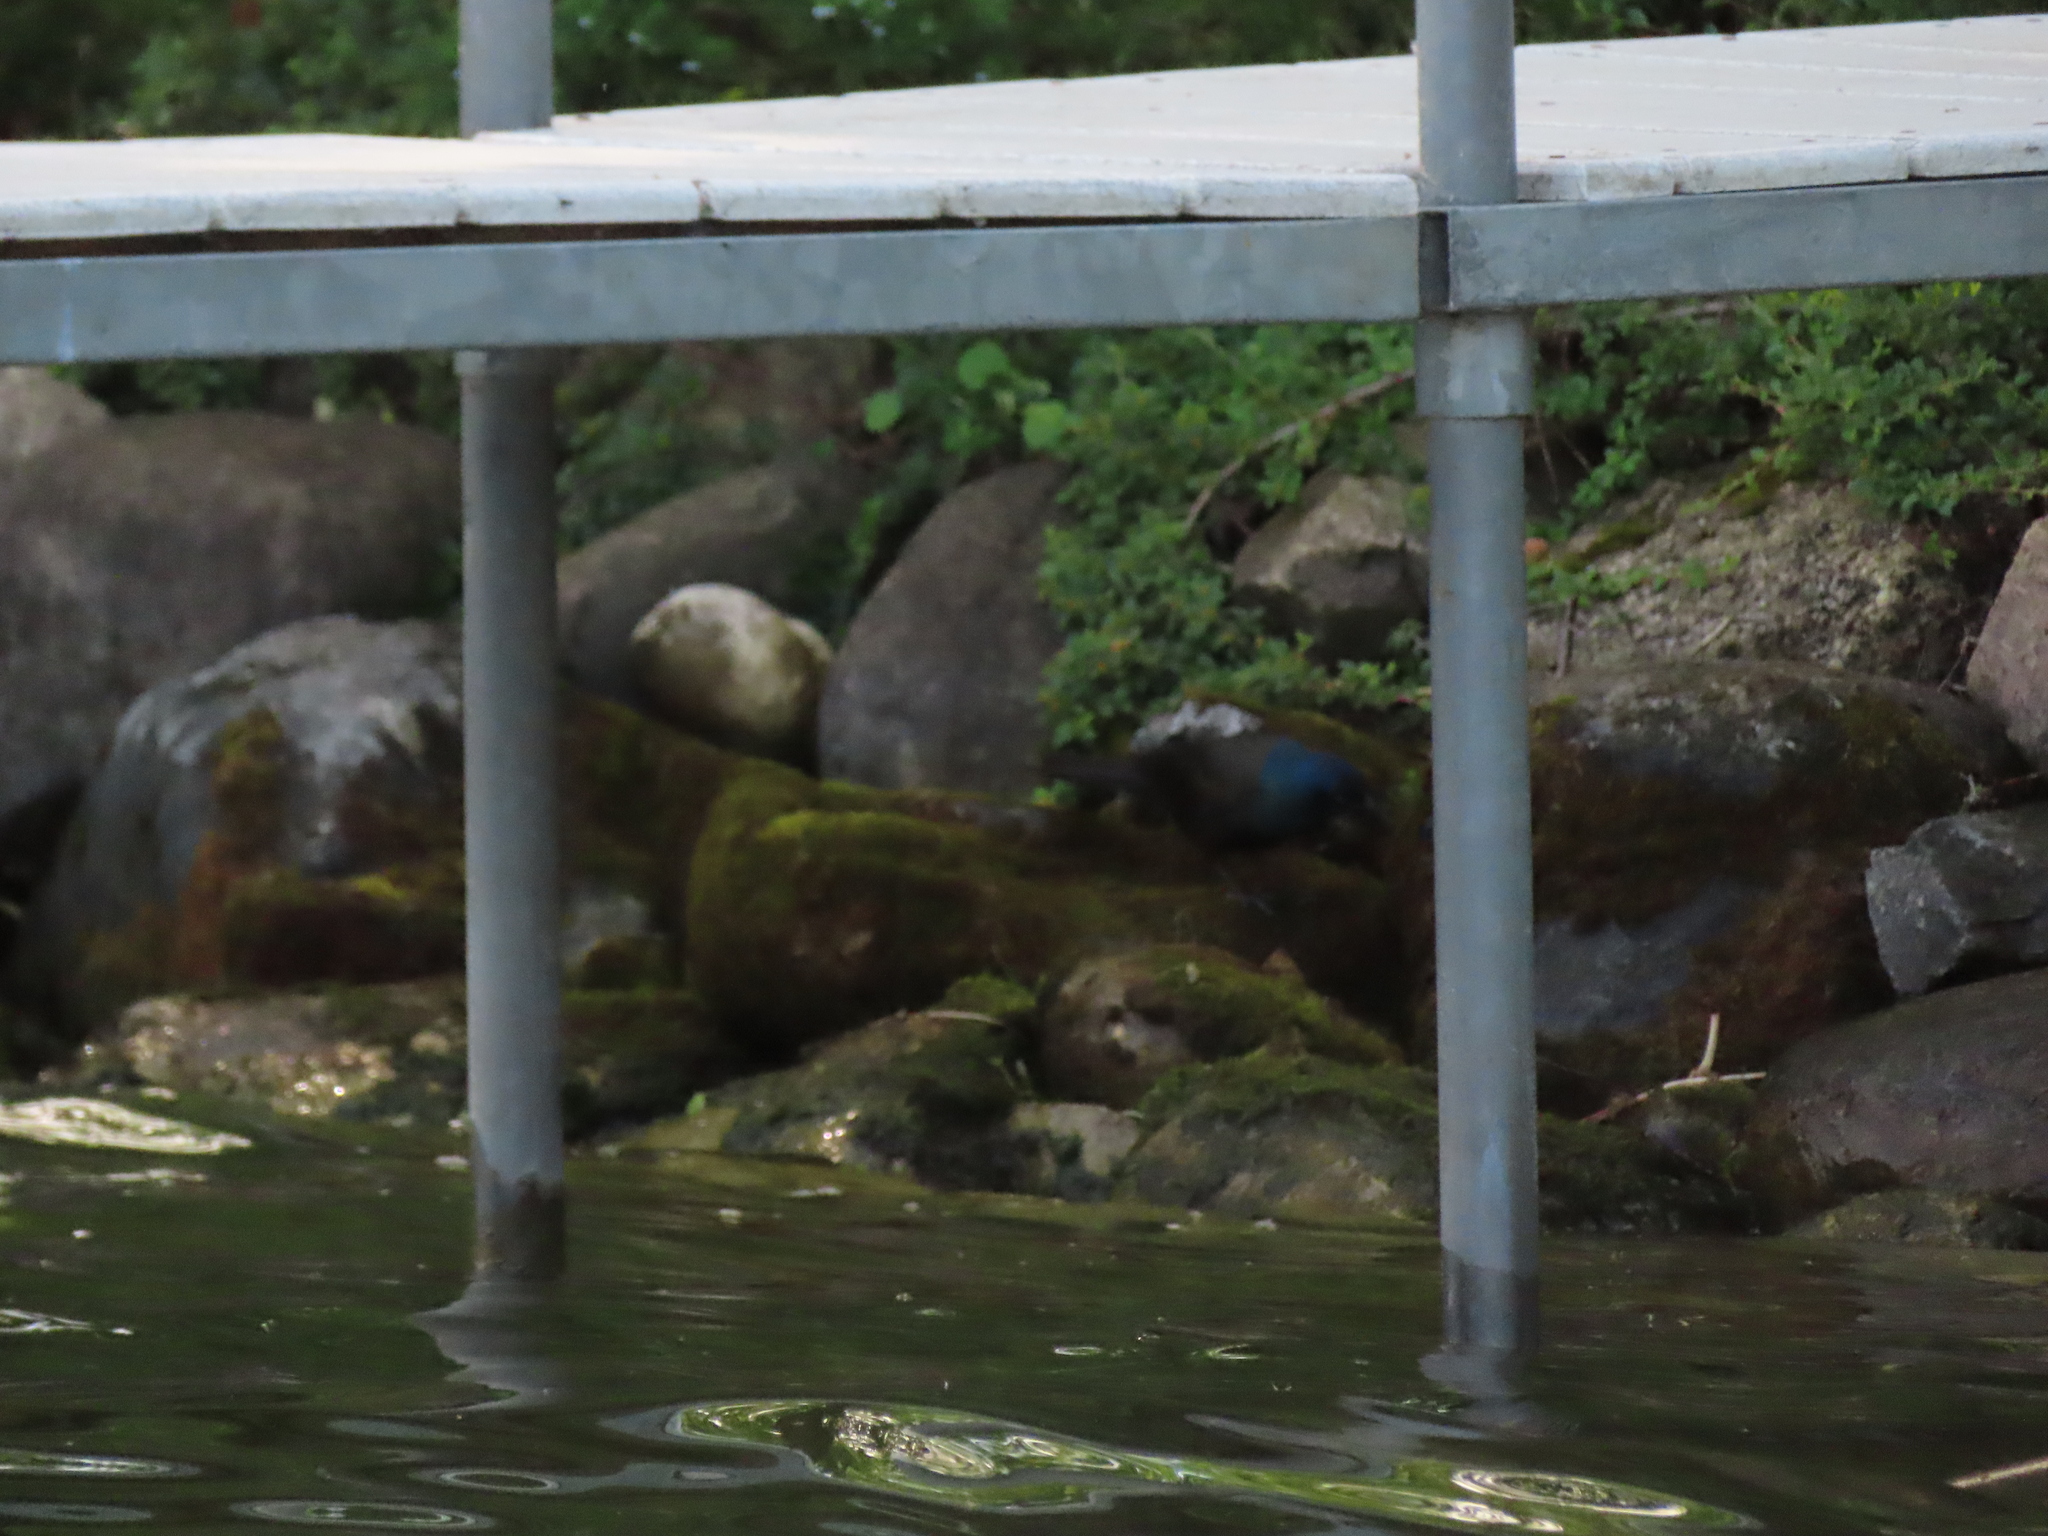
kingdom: Animalia
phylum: Chordata
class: Aves
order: Passeriformes
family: Icteridae
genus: Quiscalus
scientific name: Quiscalus quiscula
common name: Common grackle
